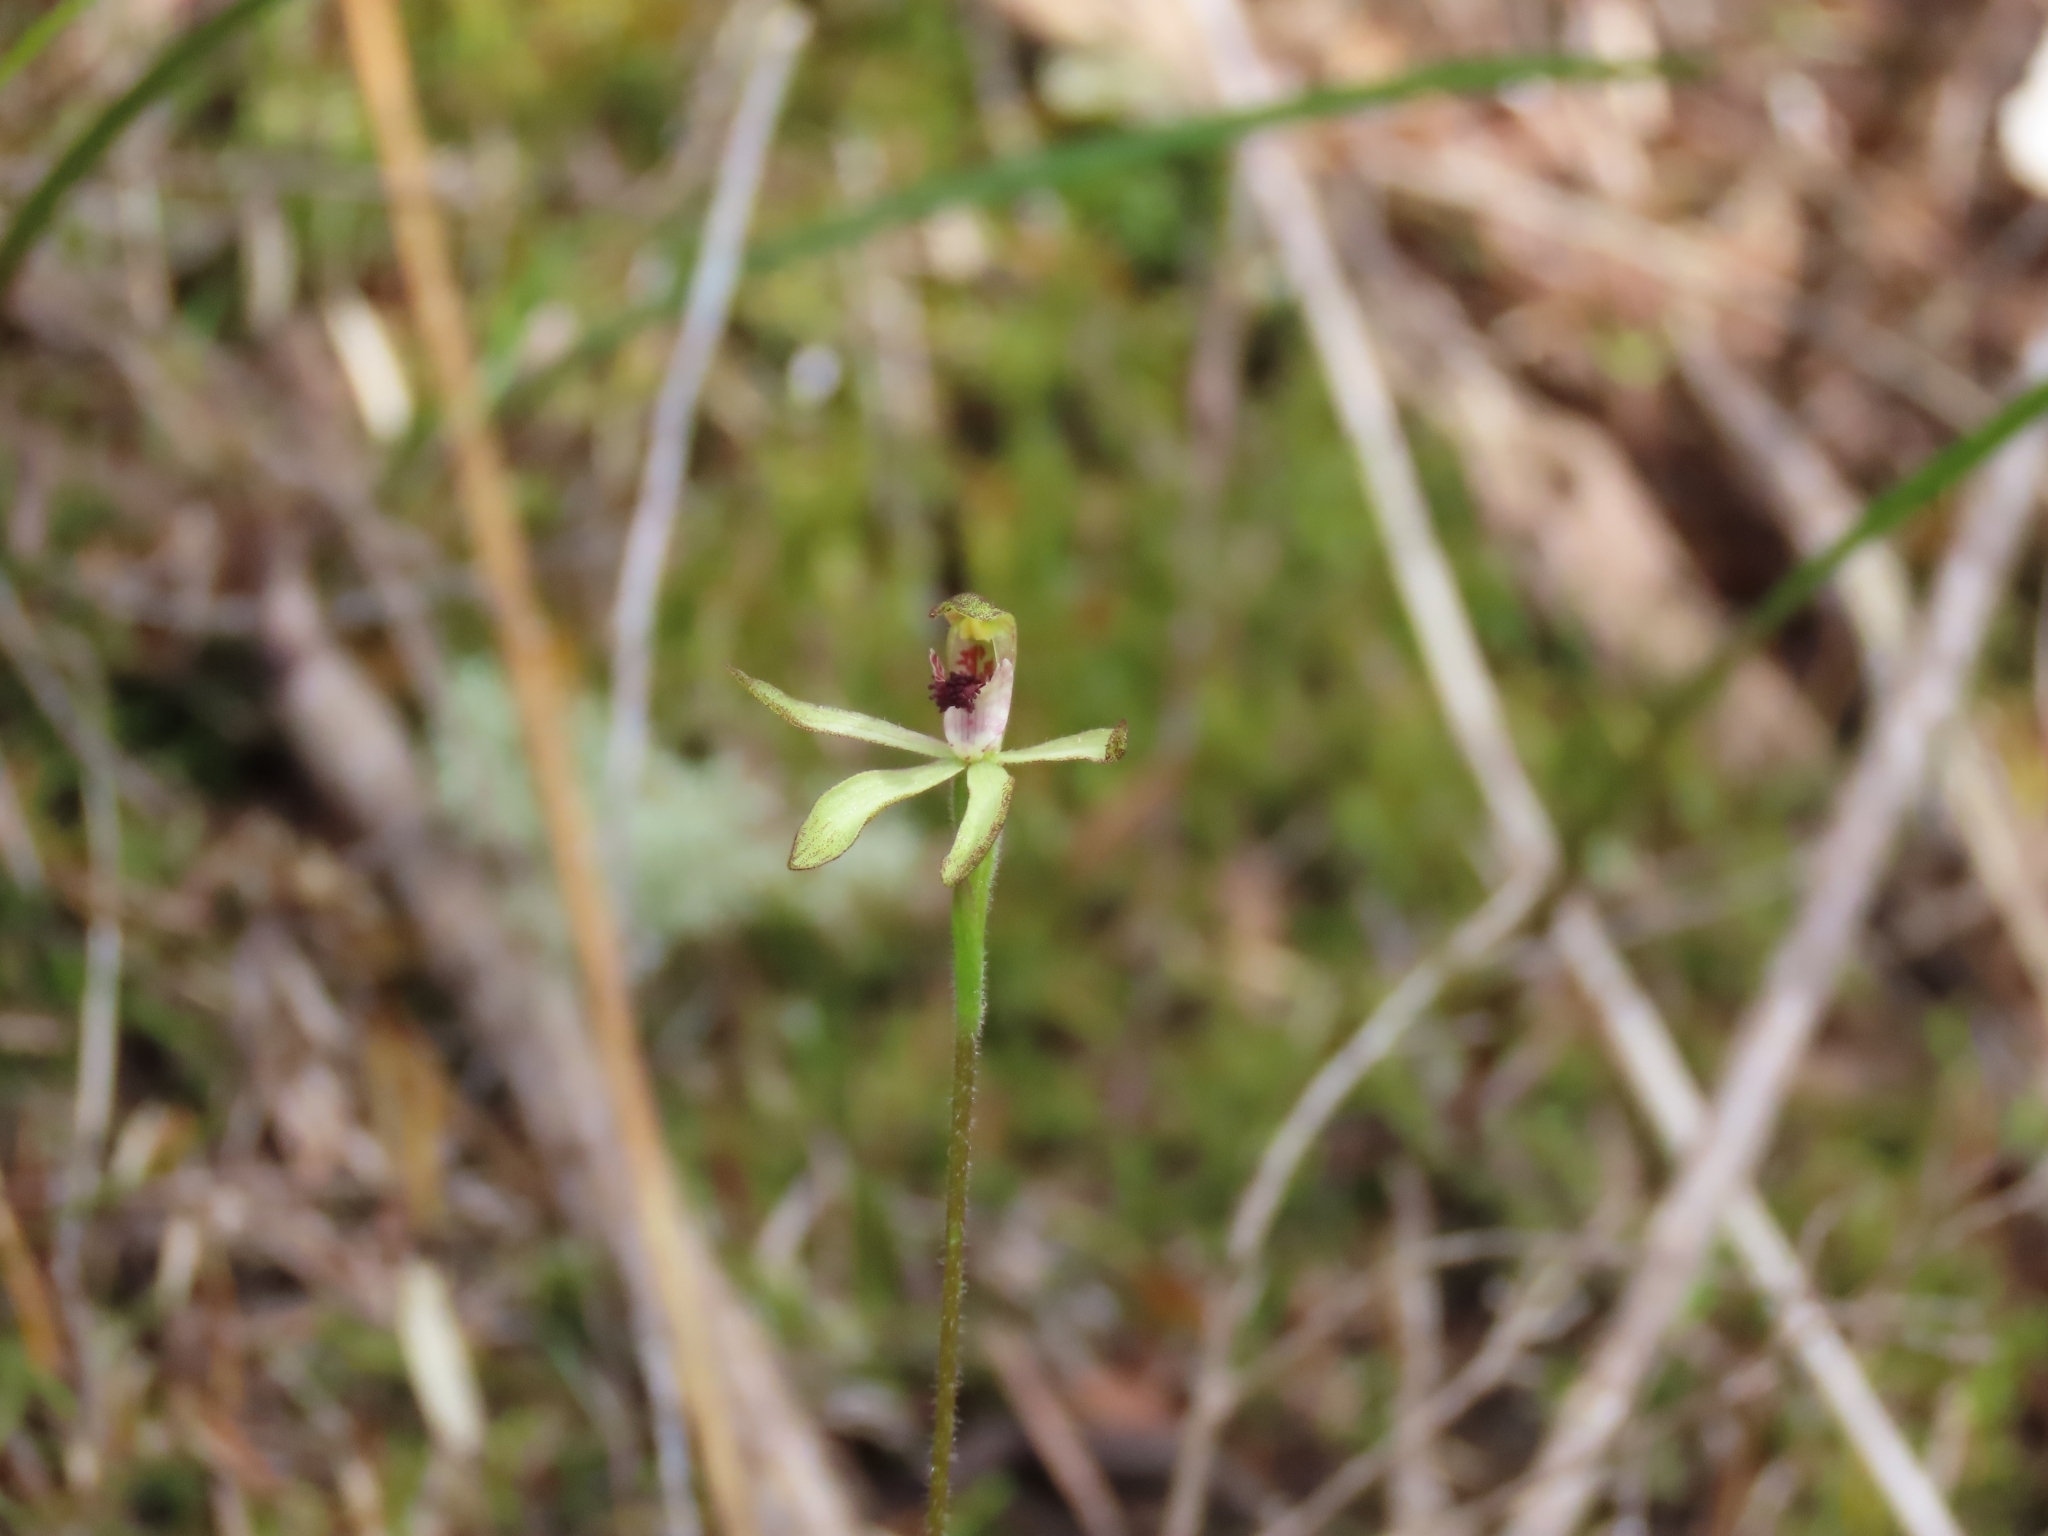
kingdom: Plantae
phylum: Tracheophyta
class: Liliopsida
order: Asparagales
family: Orchidaceae
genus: Caladenia
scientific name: Caladenia atradenia
